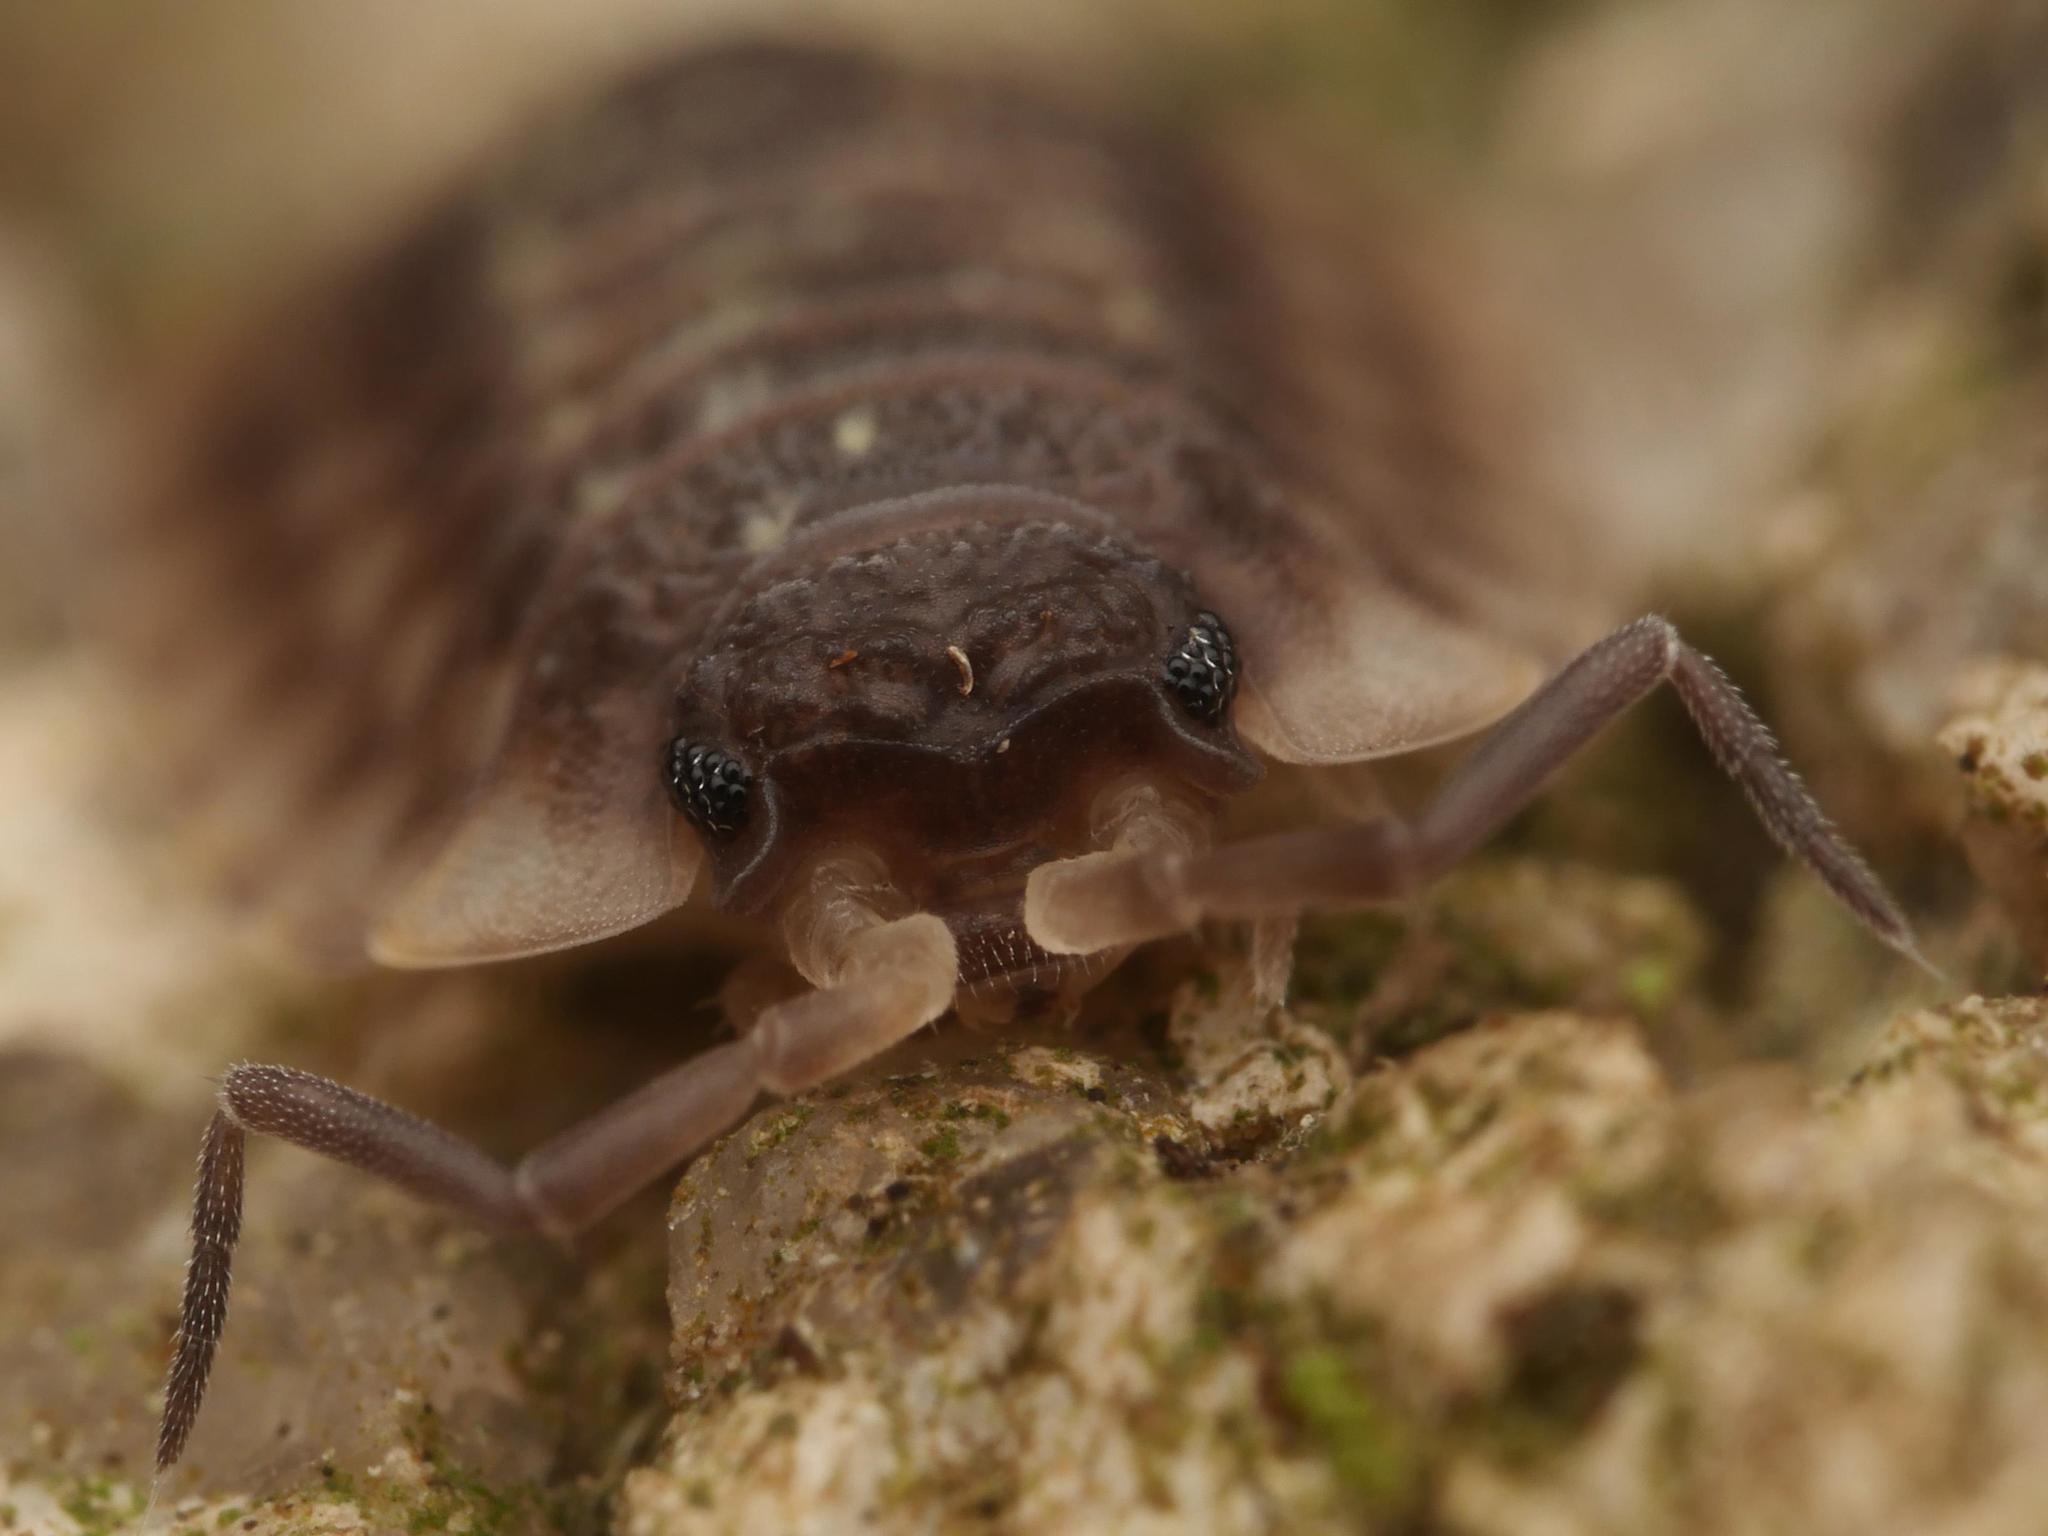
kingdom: Animalia
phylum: Arthropoda
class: Malacostraca
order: Isopoda
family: Oniscidae
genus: Oniscus
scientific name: Oniscus asellus
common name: Common shiny woodlouse
